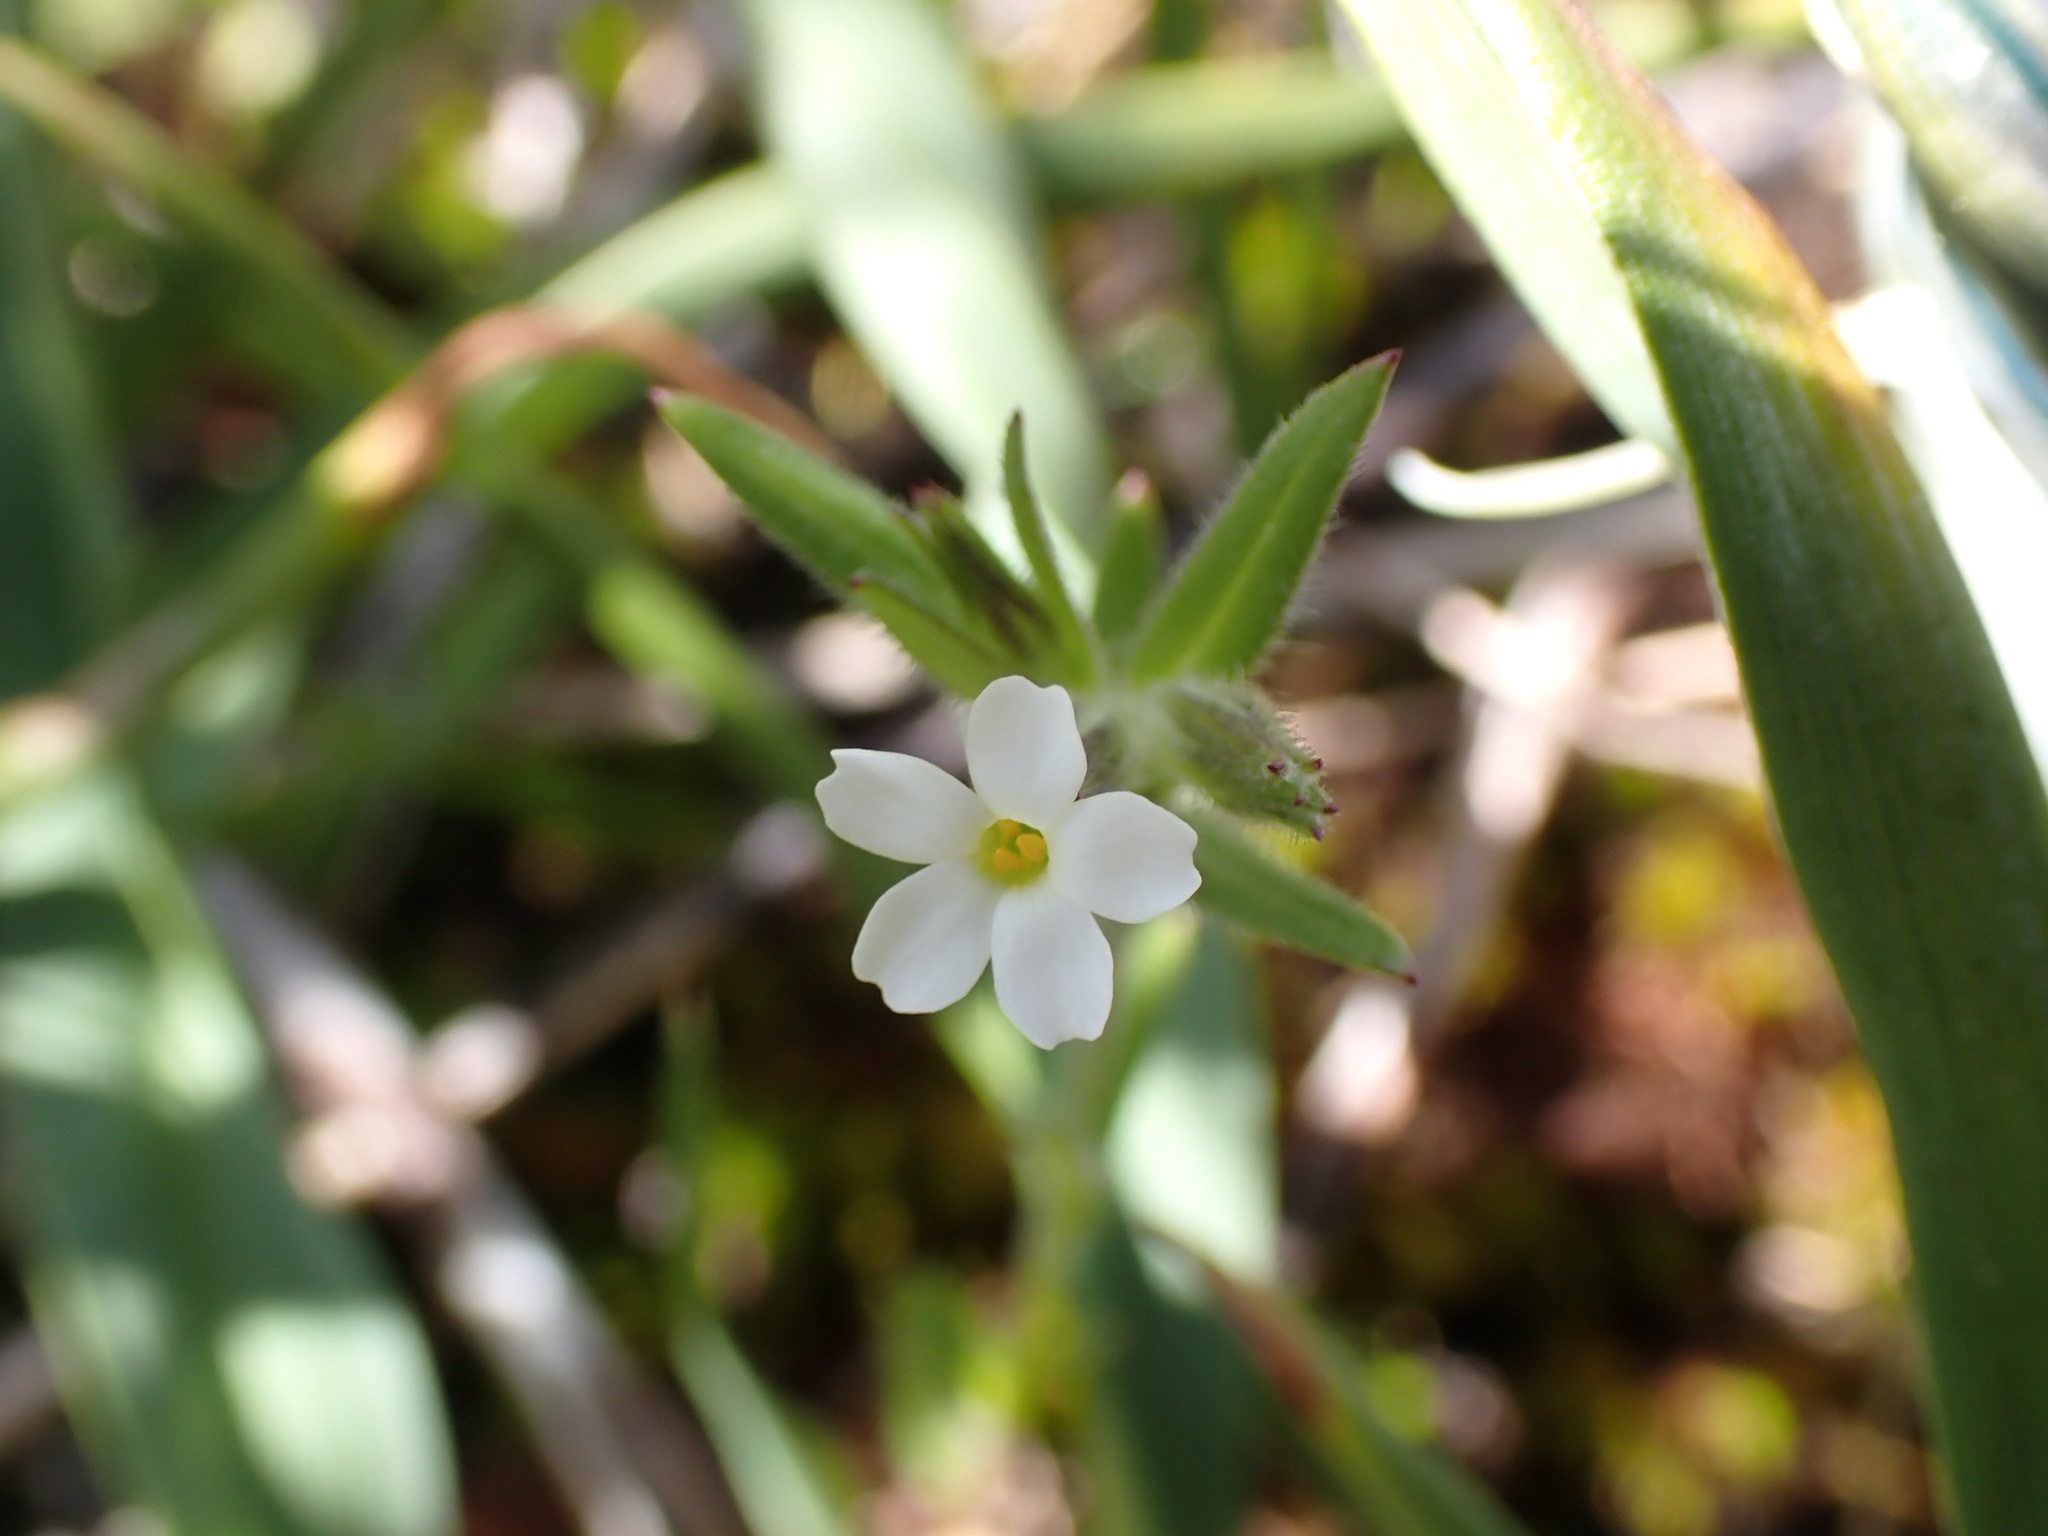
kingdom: Plantae
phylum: Tracheophyta
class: Magnoliopsida
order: Ericales
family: Polemoniaceae
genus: Phlox
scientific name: Phlox gracilis
